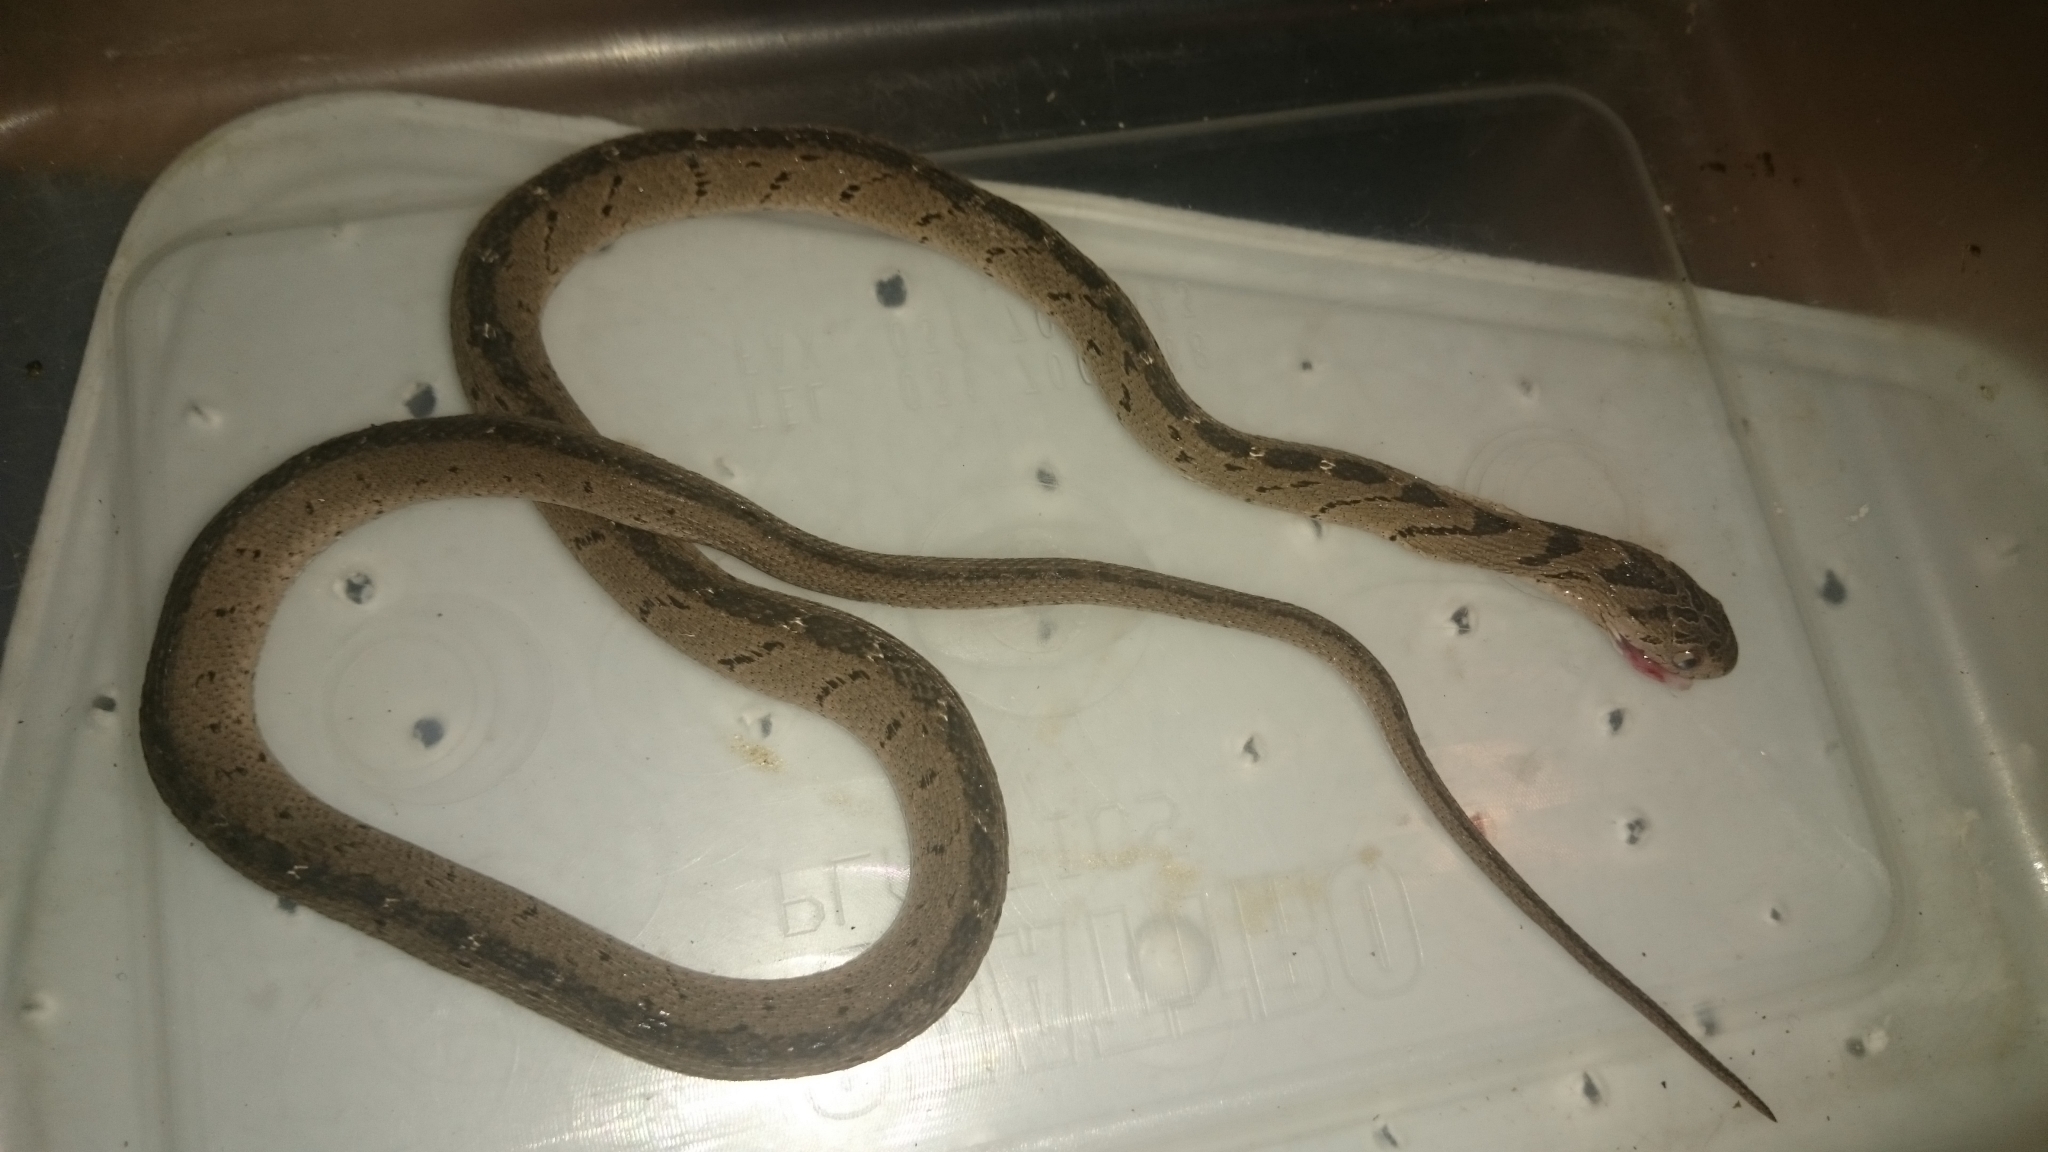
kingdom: Animalia
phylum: Chordata
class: Squamata
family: Colubridae
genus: Dasypeltis
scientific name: Dasypeltis medici
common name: East african egg eater
